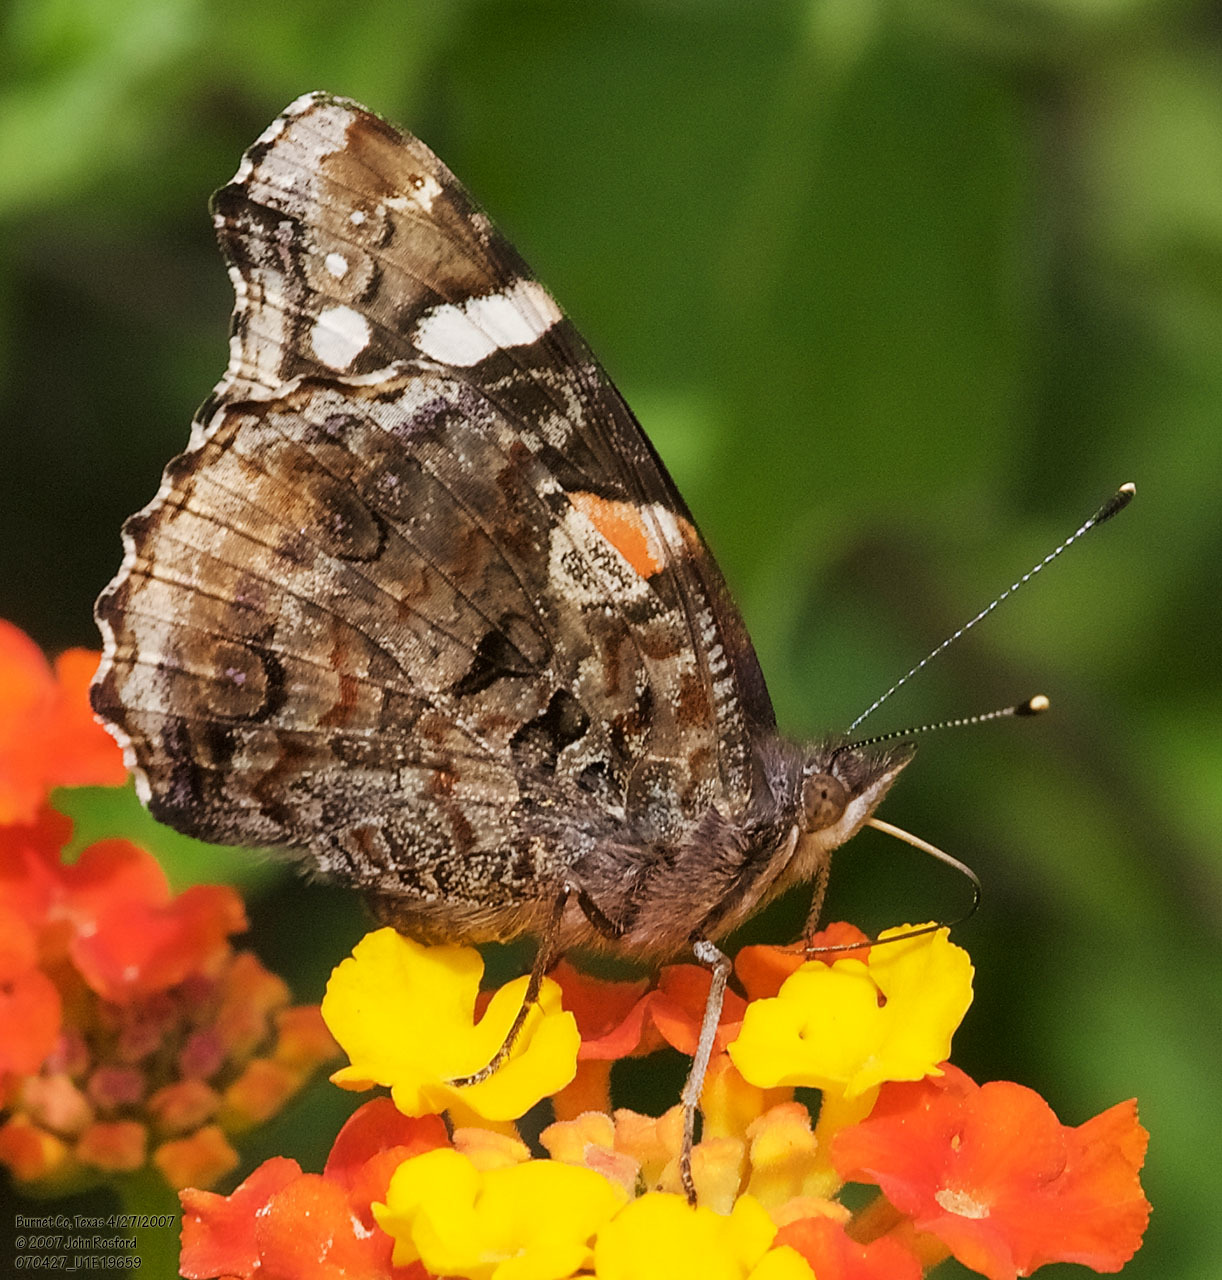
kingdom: Animalia
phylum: Arthropoda
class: Insecta
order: Lepidoptera
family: Nymphalidae
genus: Vanessa
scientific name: Vanessa atalanta
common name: Red admiral
